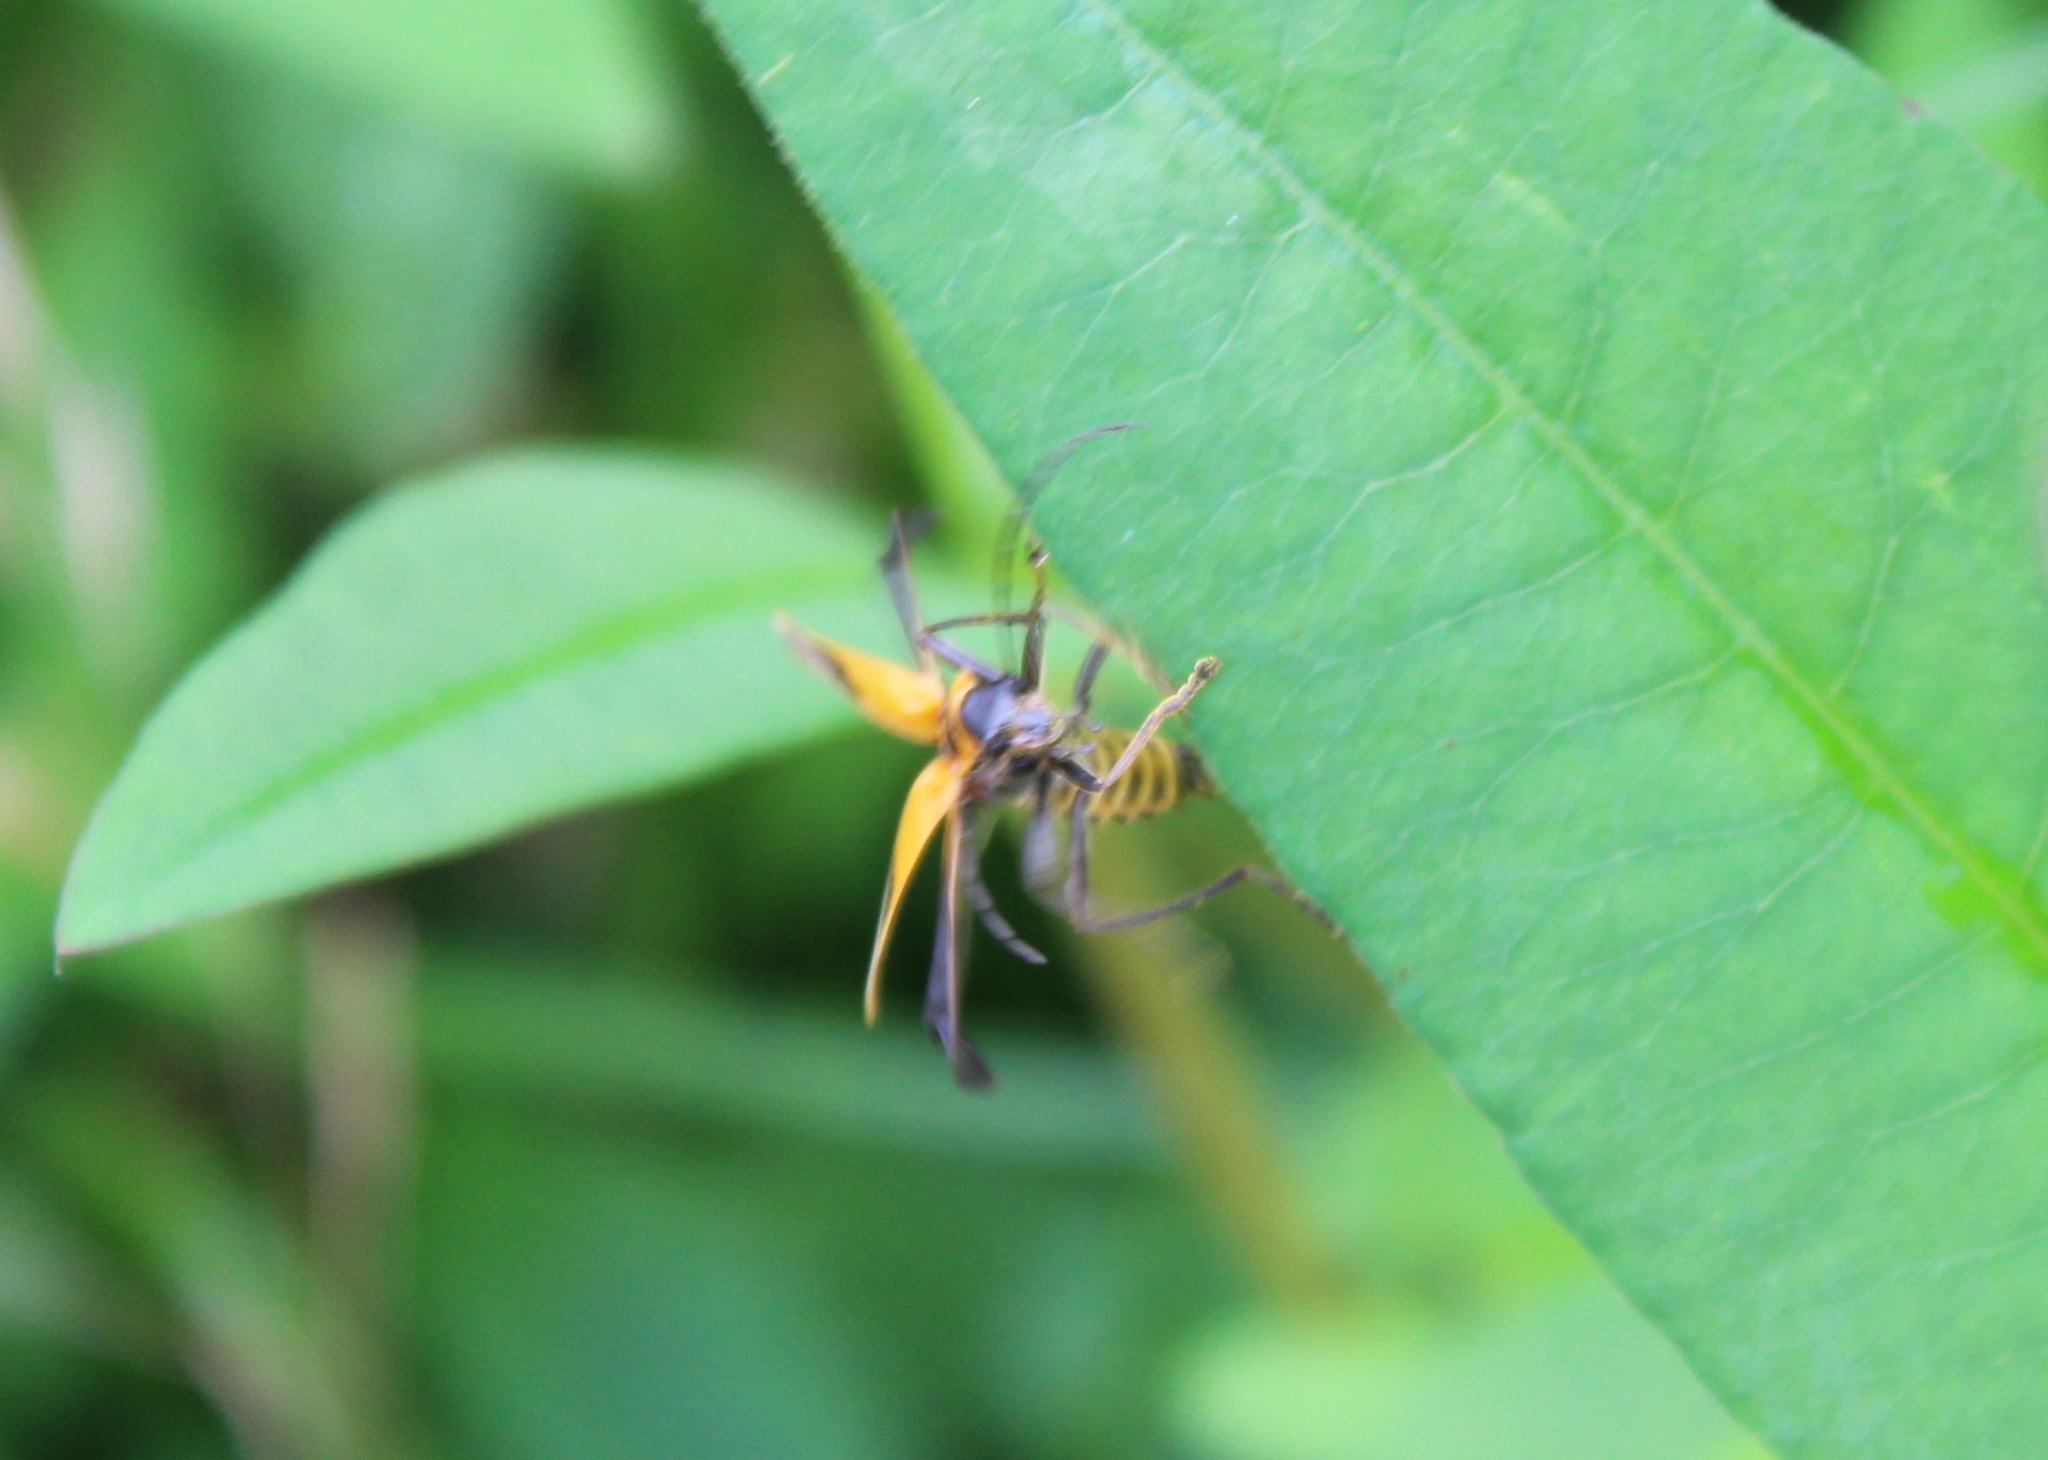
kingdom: Animalia
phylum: Arthropoda
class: Insecta
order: Coleoptera
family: Cantharidae
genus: Chauliognathus
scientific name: Chauliognathus pensylvanicus
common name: Goldenrod soldier beetle
